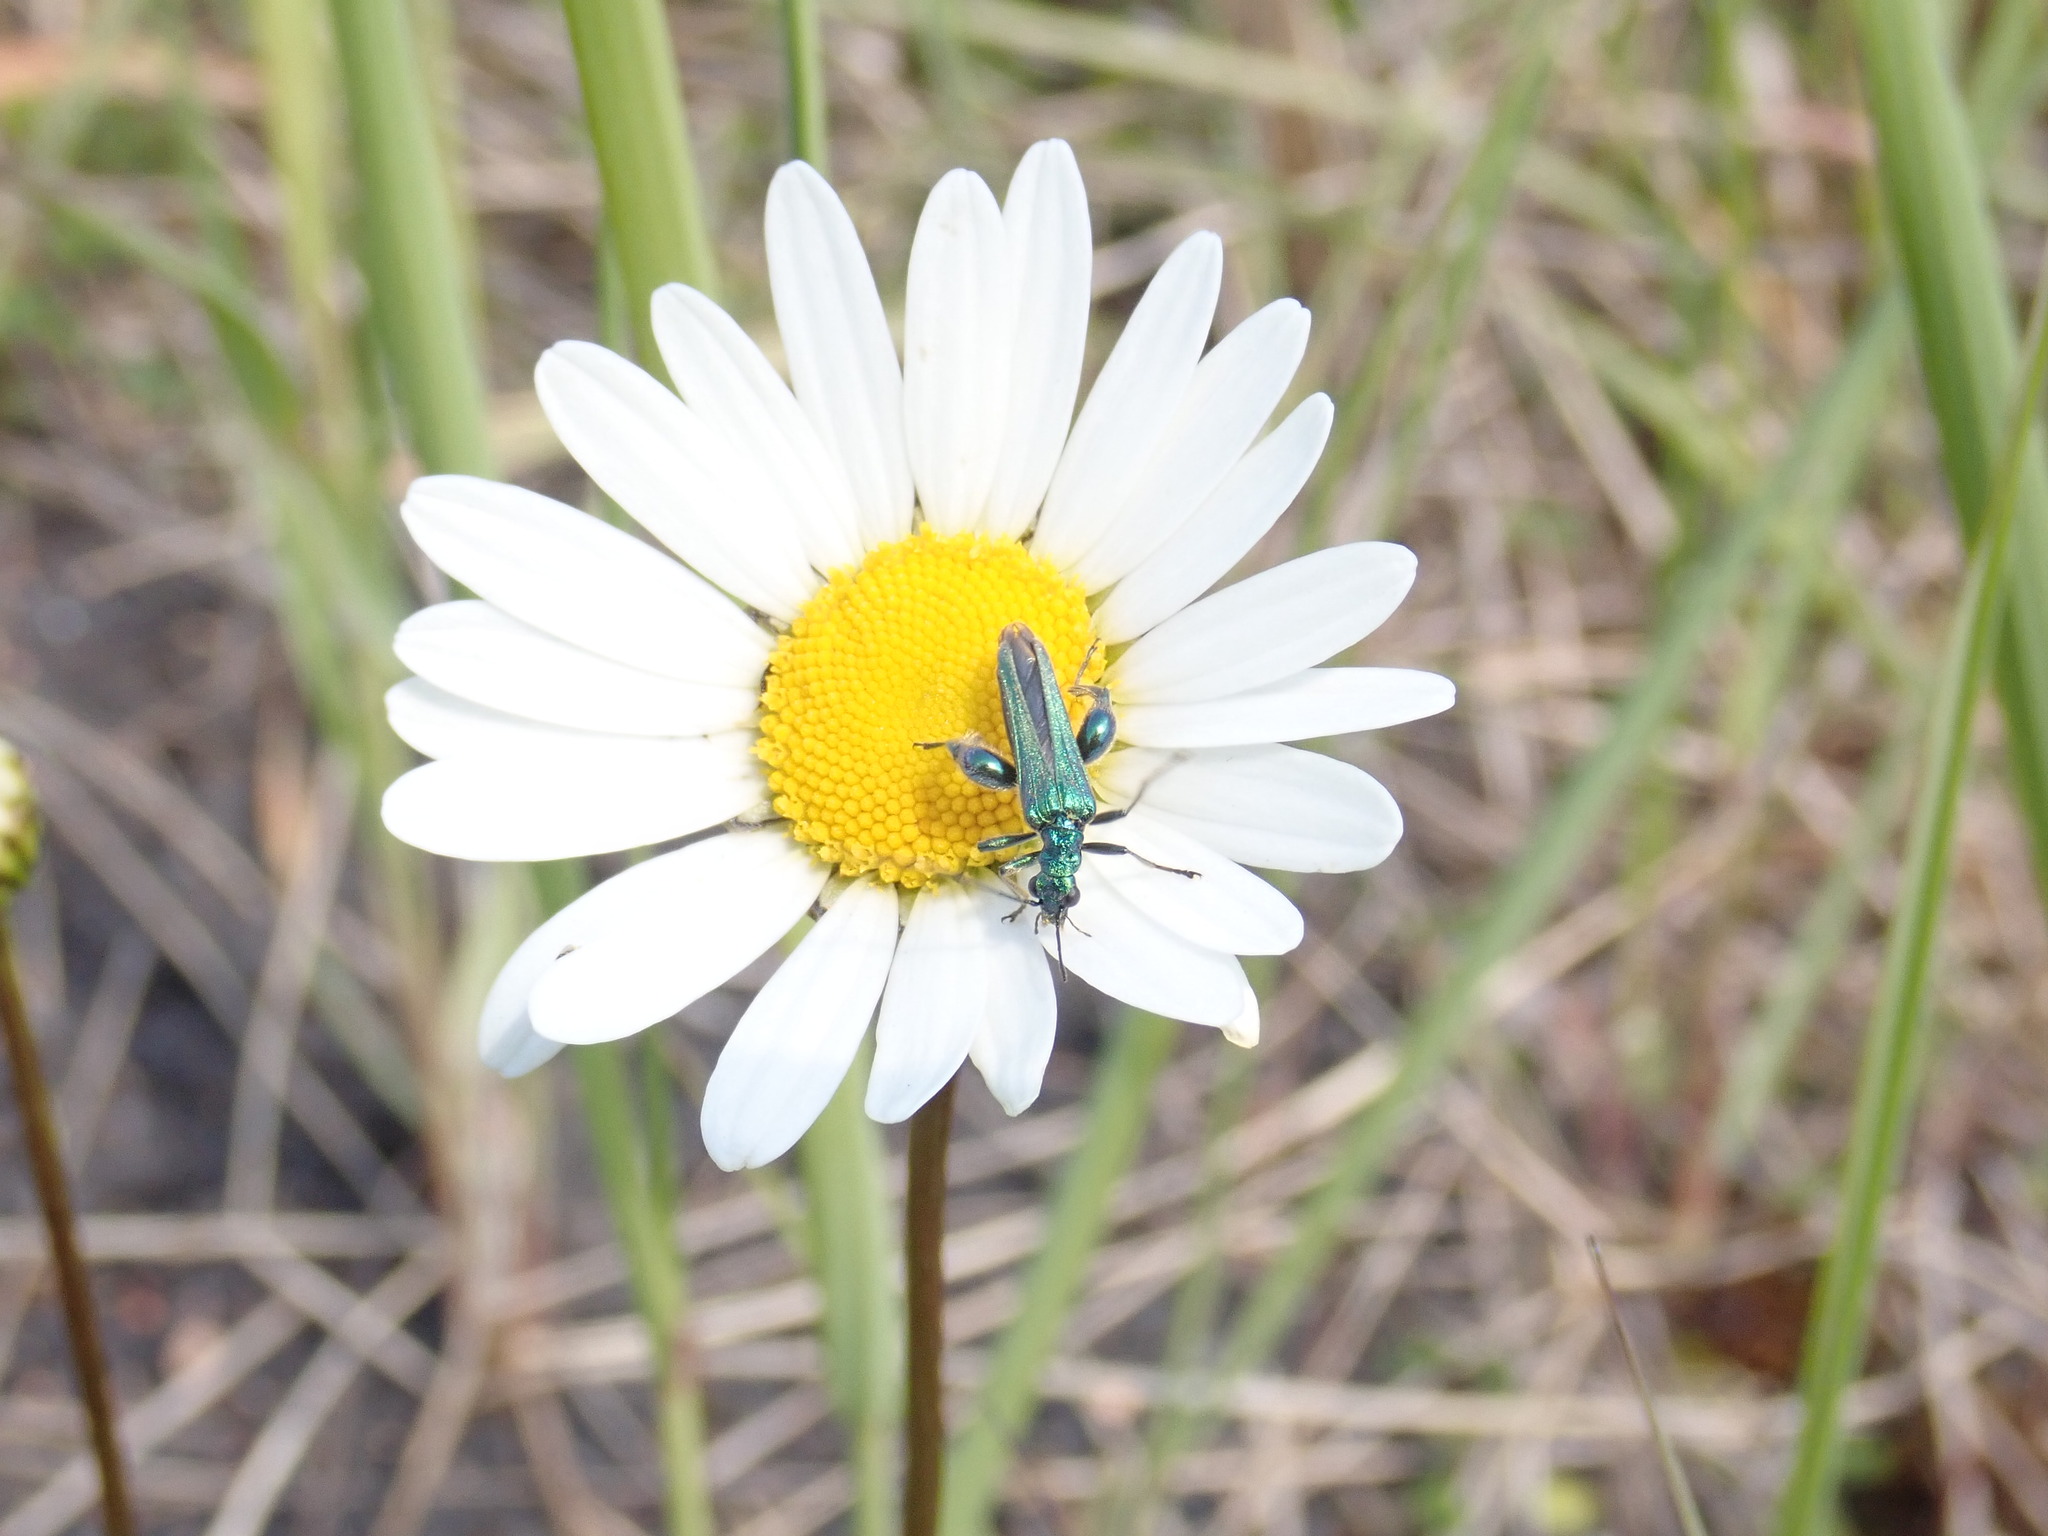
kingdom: Animalia
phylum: Arthropoda
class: Insecta
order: Coleoptera
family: Oedemeridae
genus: Oedemera
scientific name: Oedemera nobilis
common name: Swollen-thighed beetle
